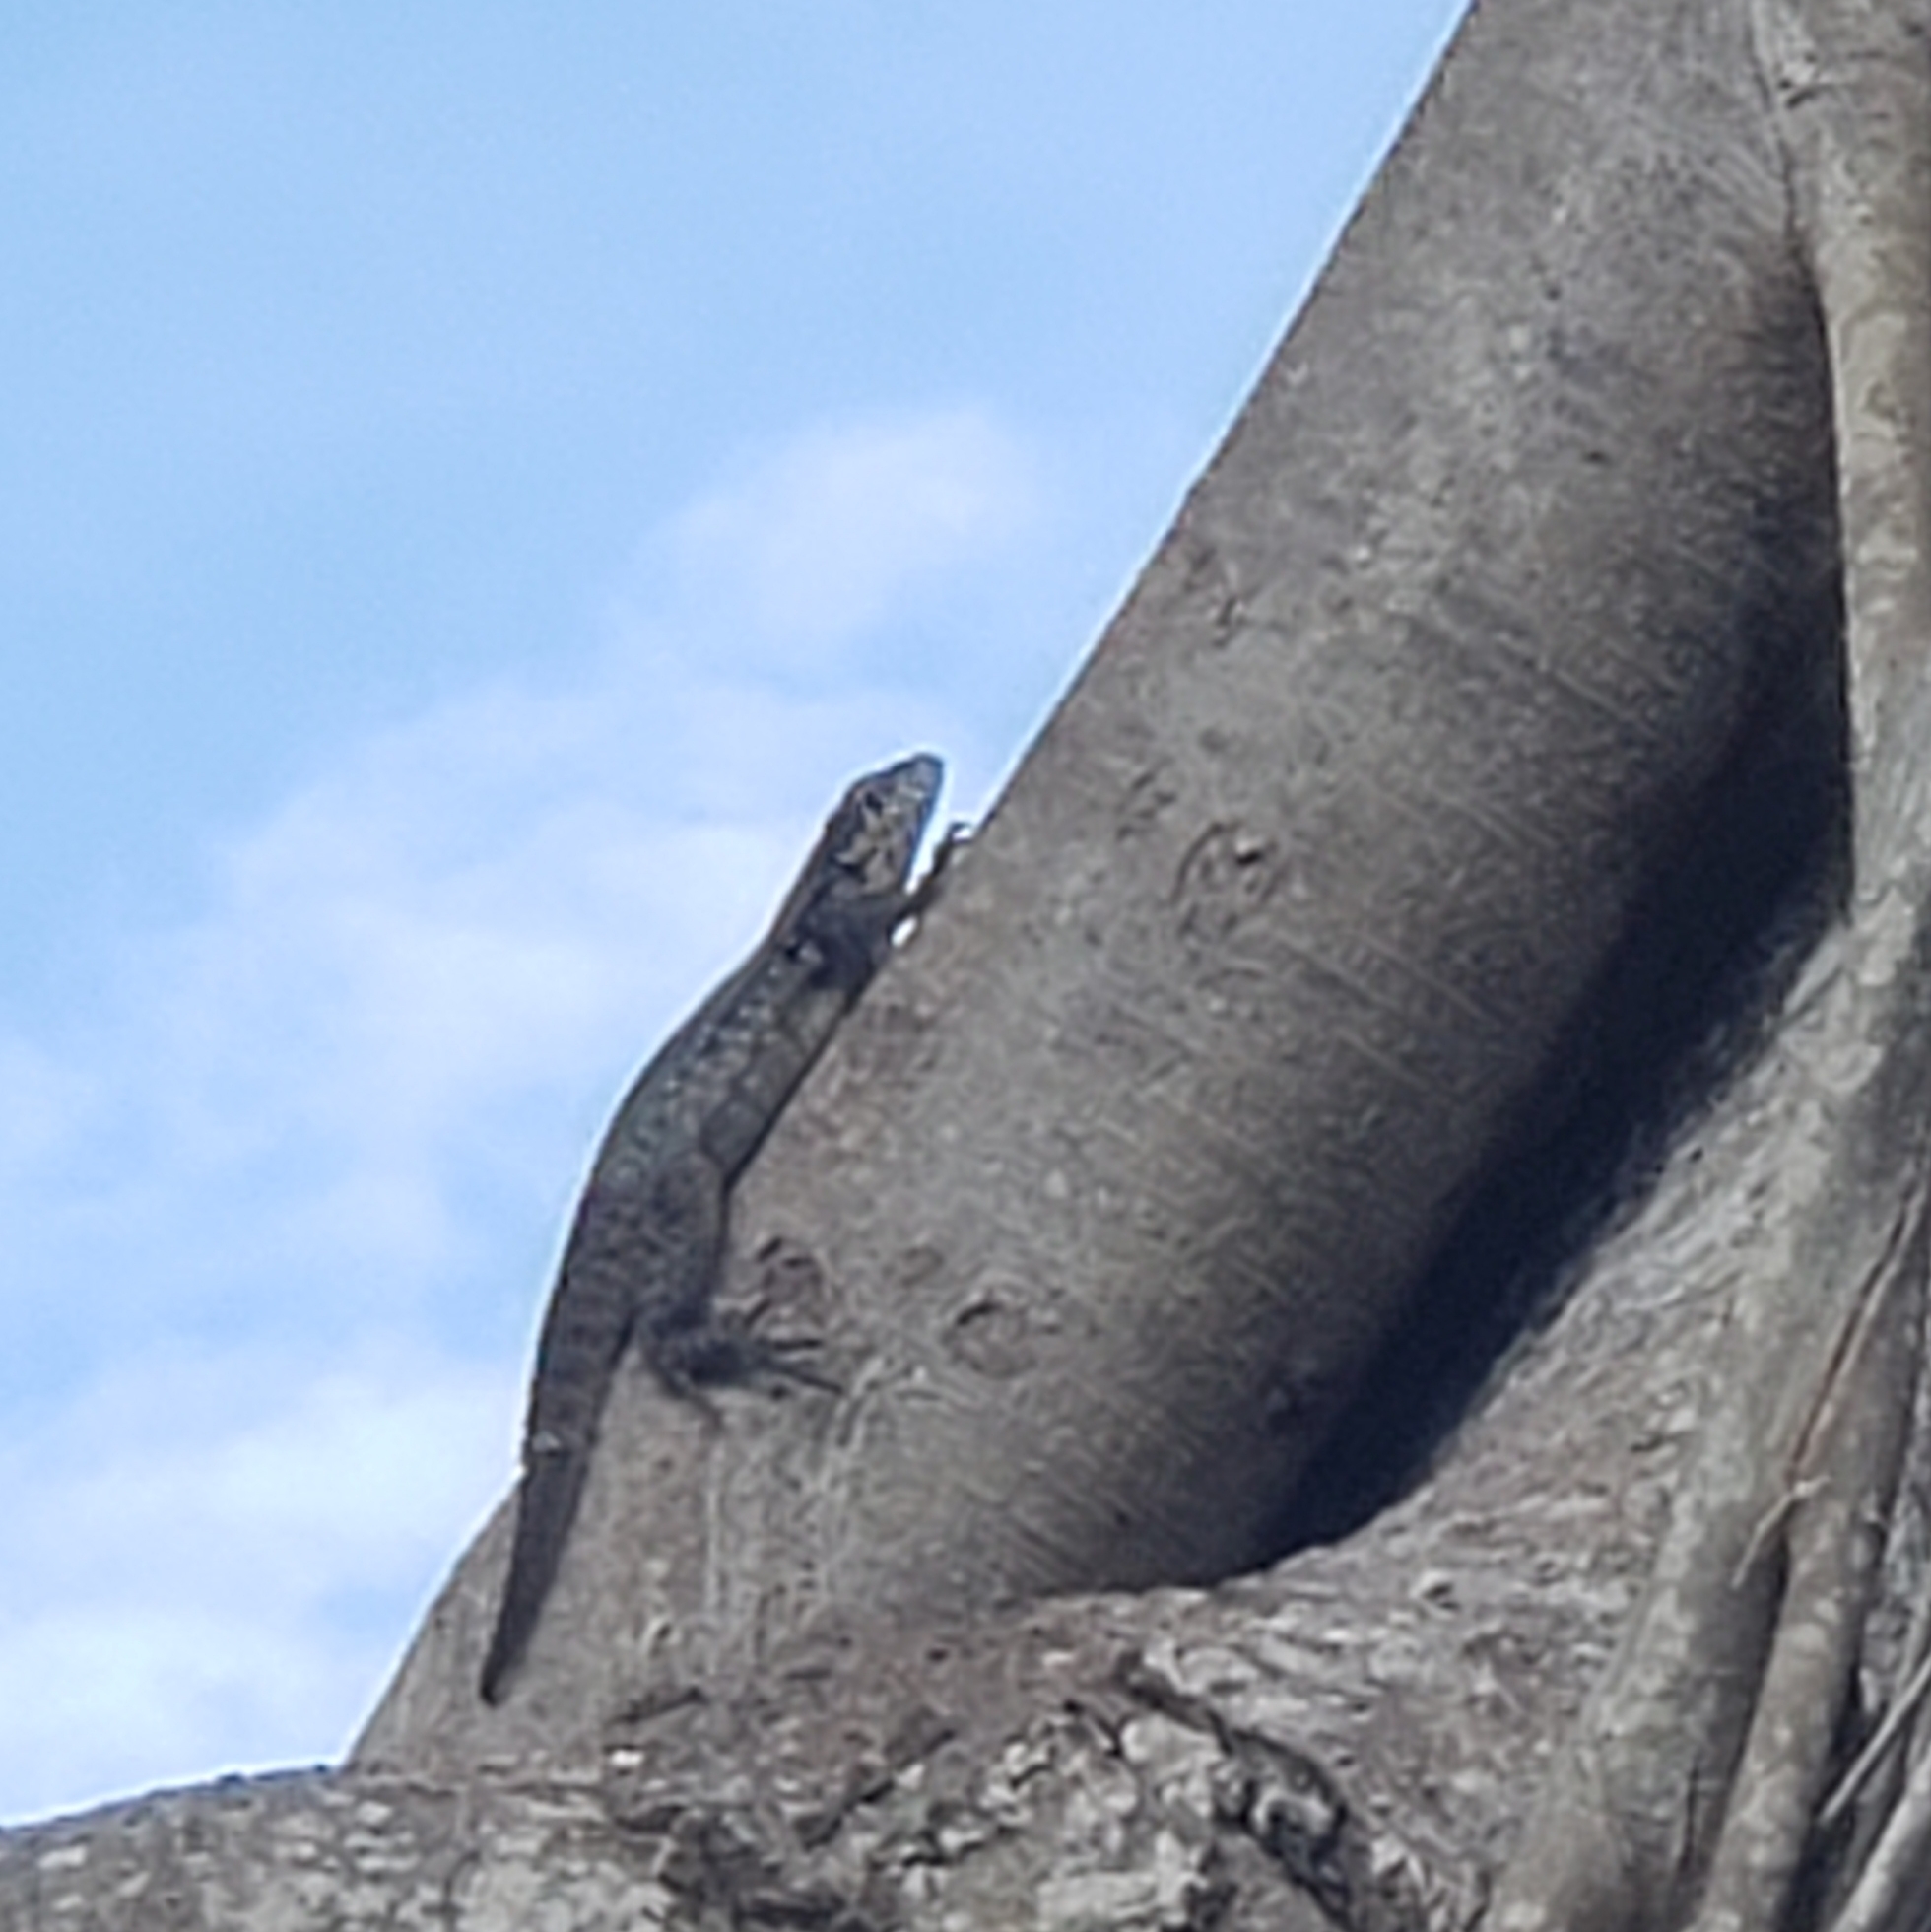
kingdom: Animalia
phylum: Chordata
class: Squamata
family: Leiocephalidae
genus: Leiocephalus
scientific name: Leiocephalus carinatus
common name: Northern curly-tailed lizard
